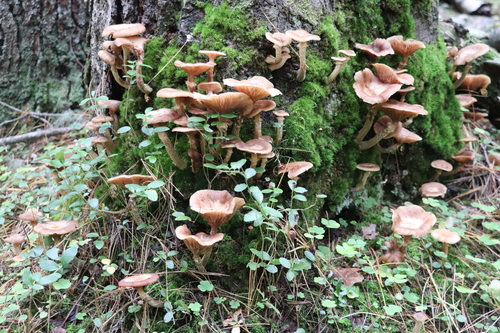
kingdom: Fungi
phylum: Basidiomycota
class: Agaricomycetes
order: Agaricales
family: Physalacriaceae
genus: Armillaria
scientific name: Armillaria cepistipes
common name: Mullet honey fungus
